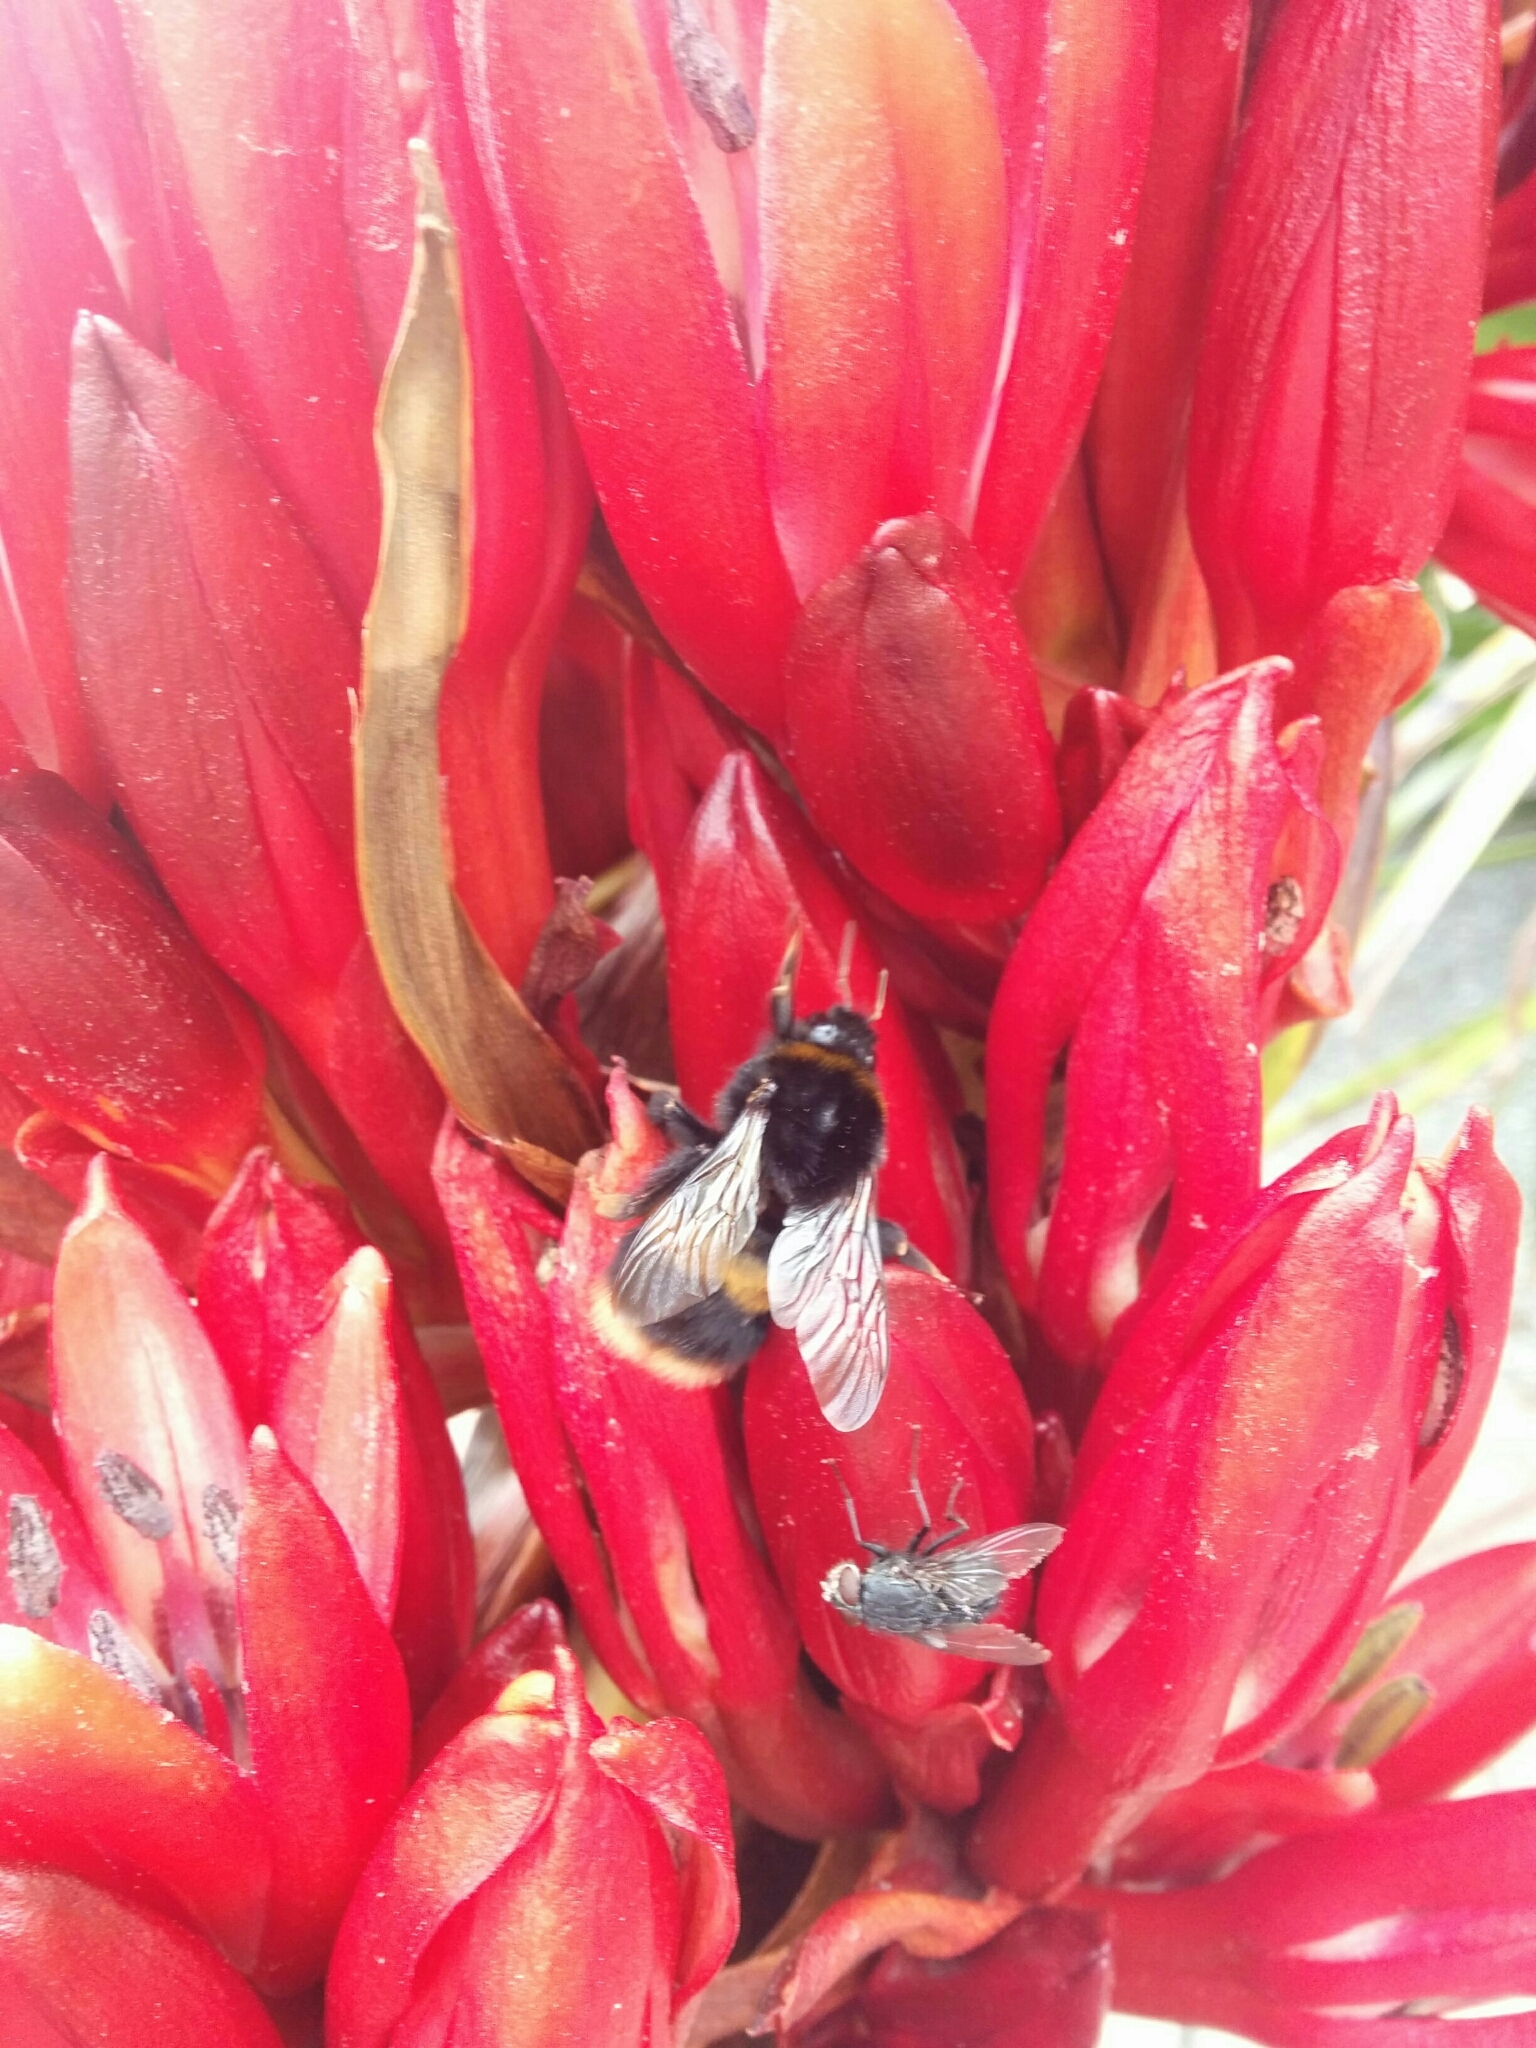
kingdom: Animalia
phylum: Arthropoda
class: Insecta
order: Hymenoptera
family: Apidae
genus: Bombus
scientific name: Bombus terrestris
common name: Buff-tailed bumblebee
